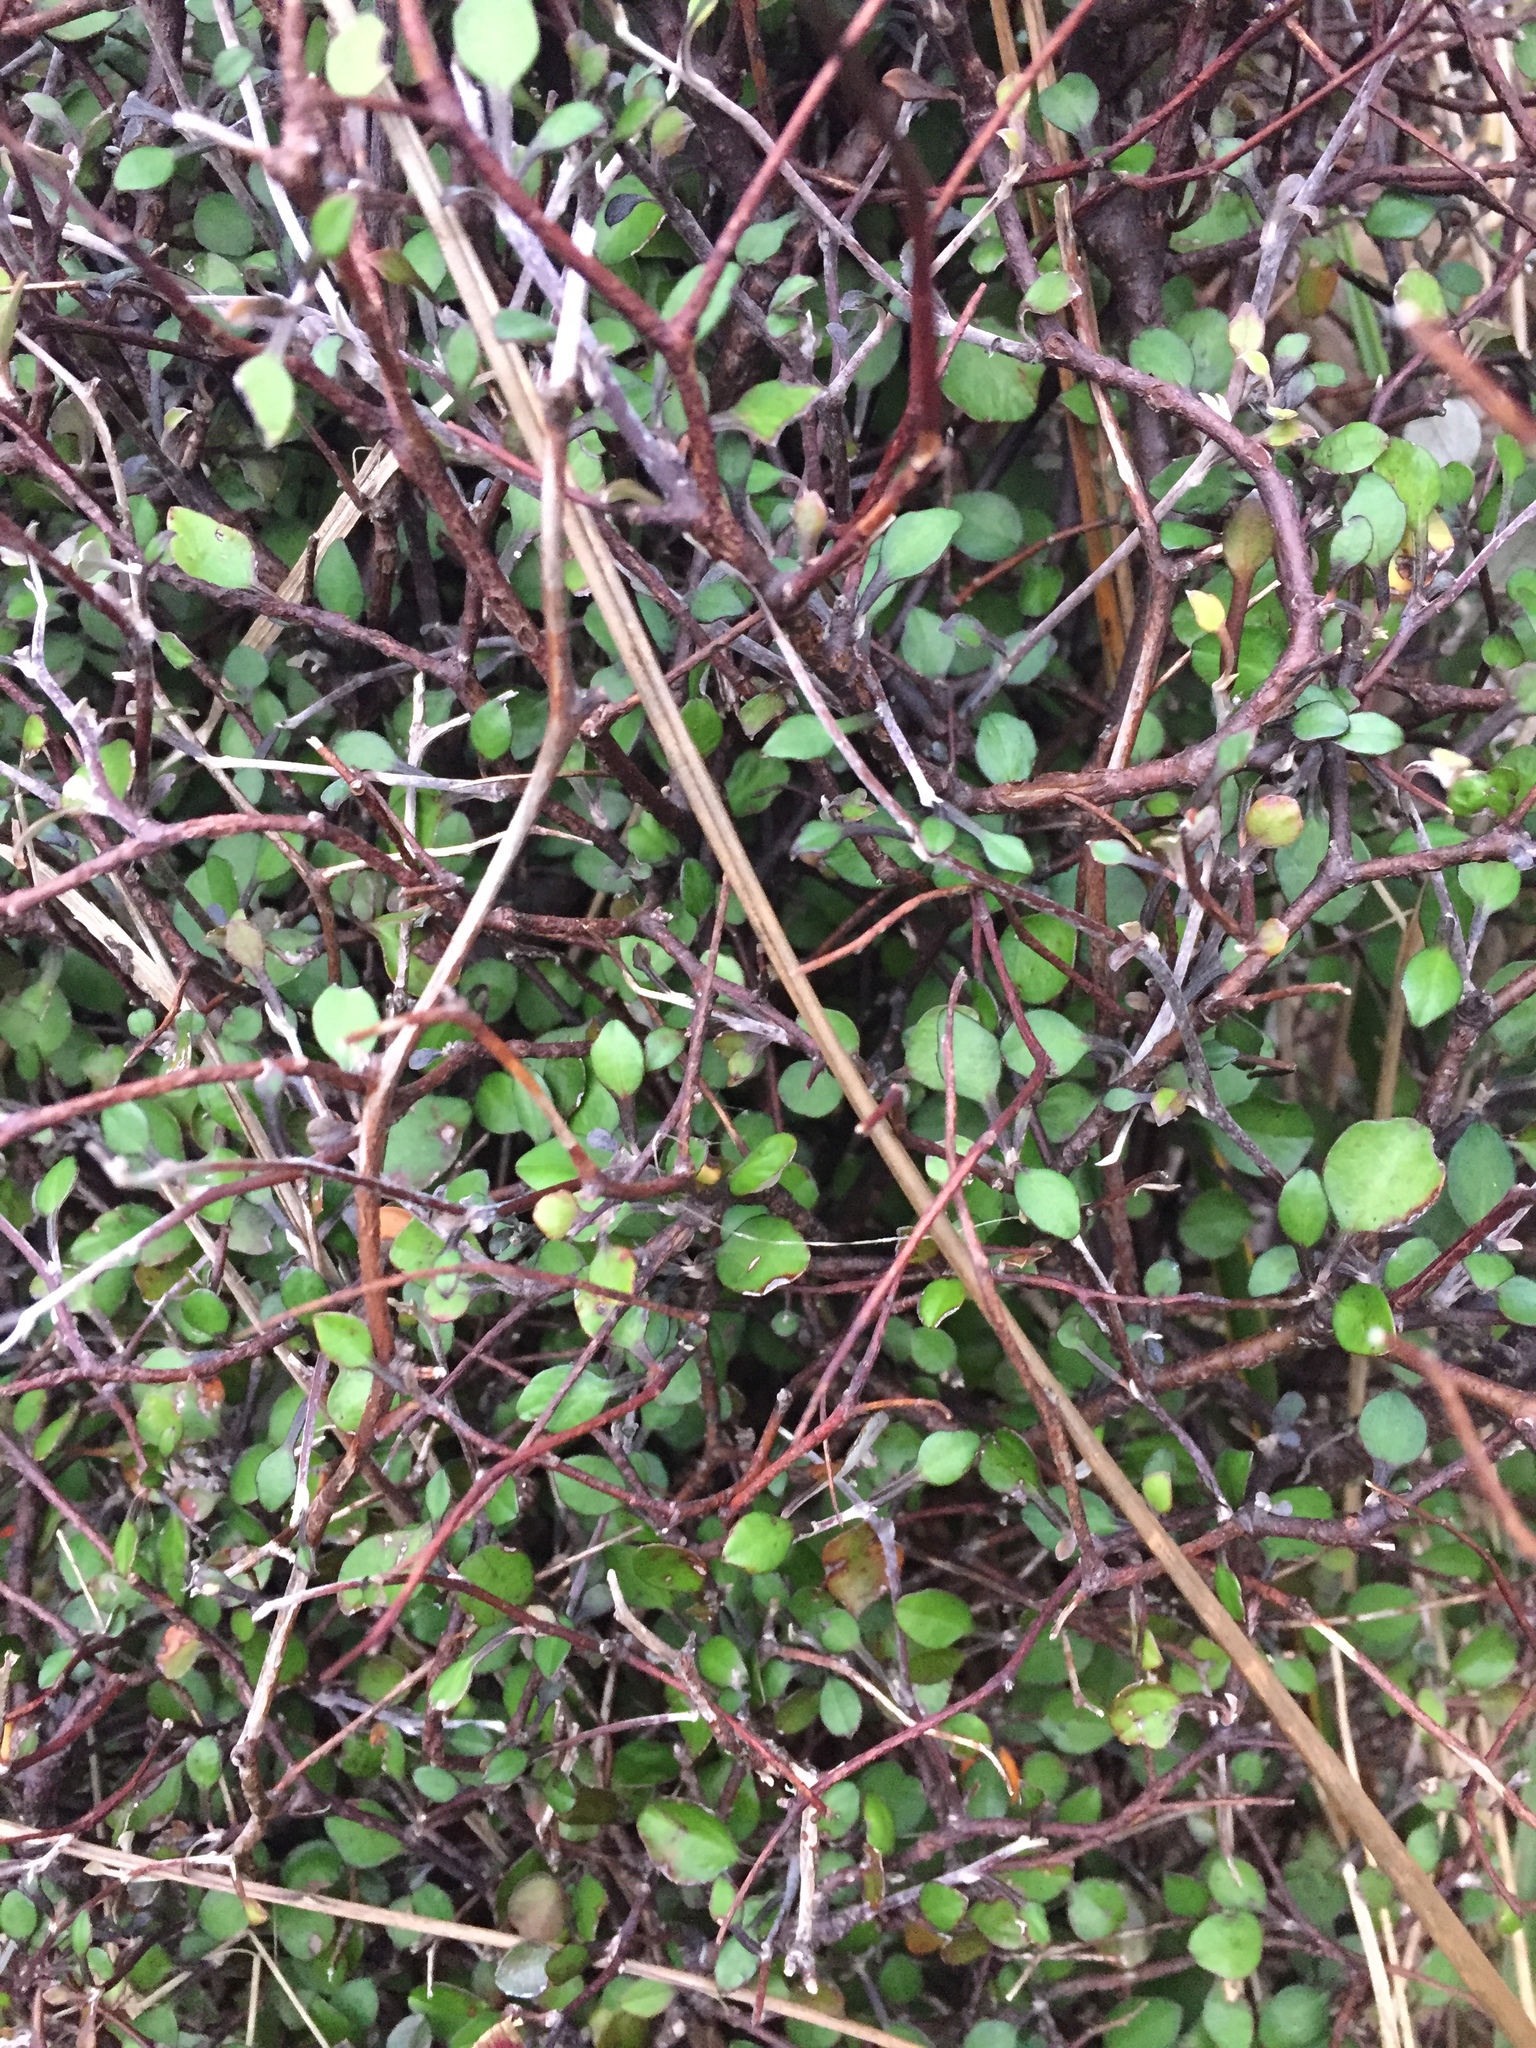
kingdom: Plantae
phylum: Tracheophyta
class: Magnoliopsida
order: Asterales
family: Argophyllaceae
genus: Corokia
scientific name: Corokia cotoneaster
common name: Wire nettingbush
